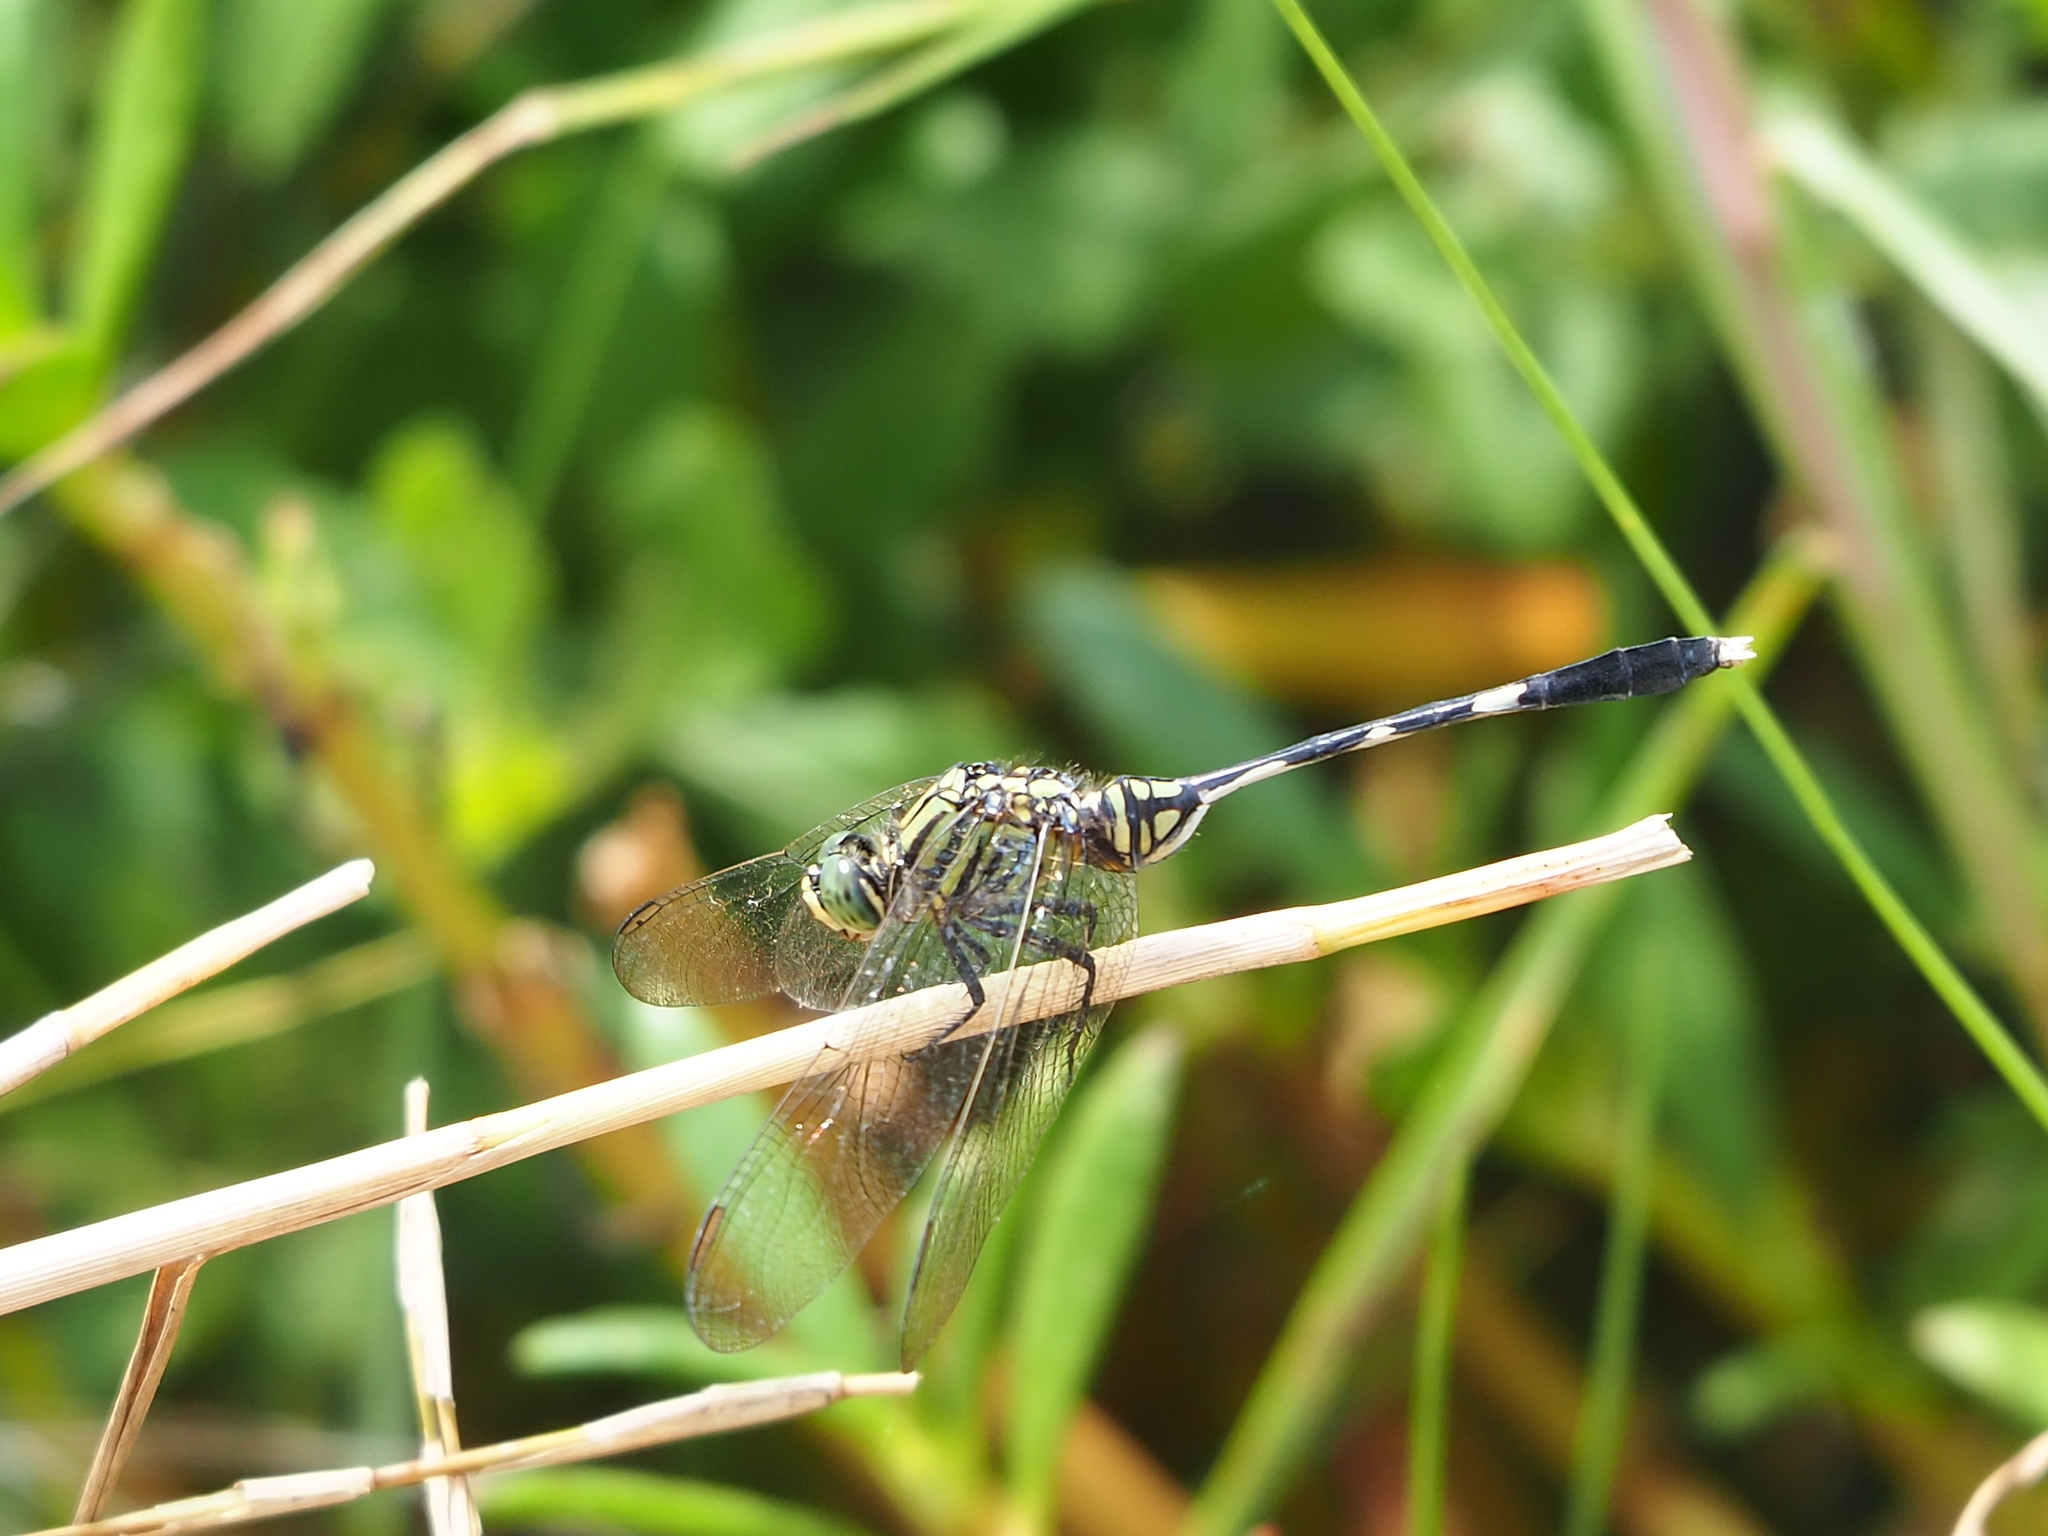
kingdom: Animalia
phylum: Arthropoda
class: Insecta
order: Odonata
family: Libellulidae
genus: Orthetrum
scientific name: Orthetrum sabina
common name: Slender skimmer
